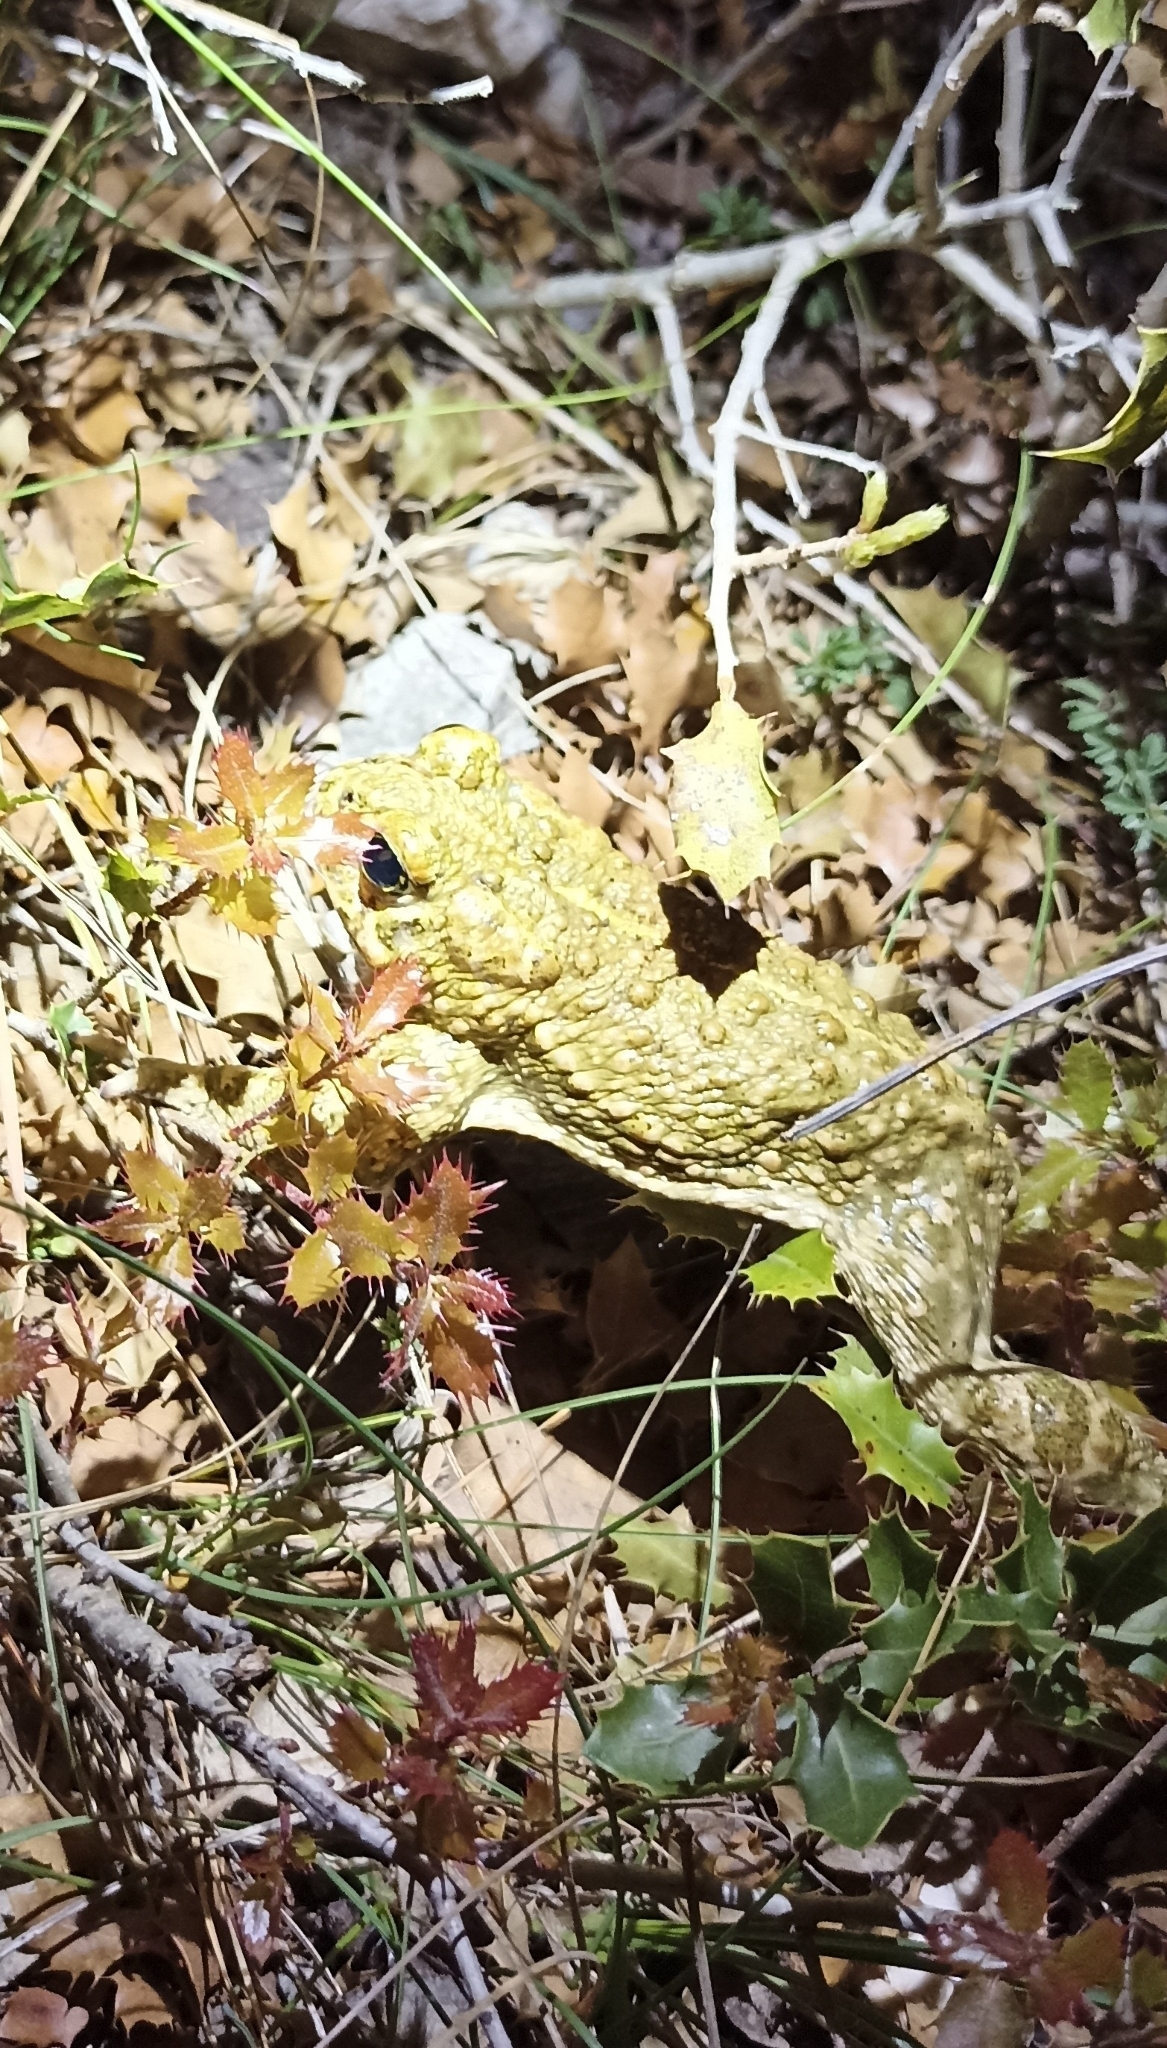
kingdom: Animalia
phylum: Chordata
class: Amphibia
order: Anura
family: Bufonidae
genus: Epidalea
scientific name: Epidalea calamita
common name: Natterjack toad
